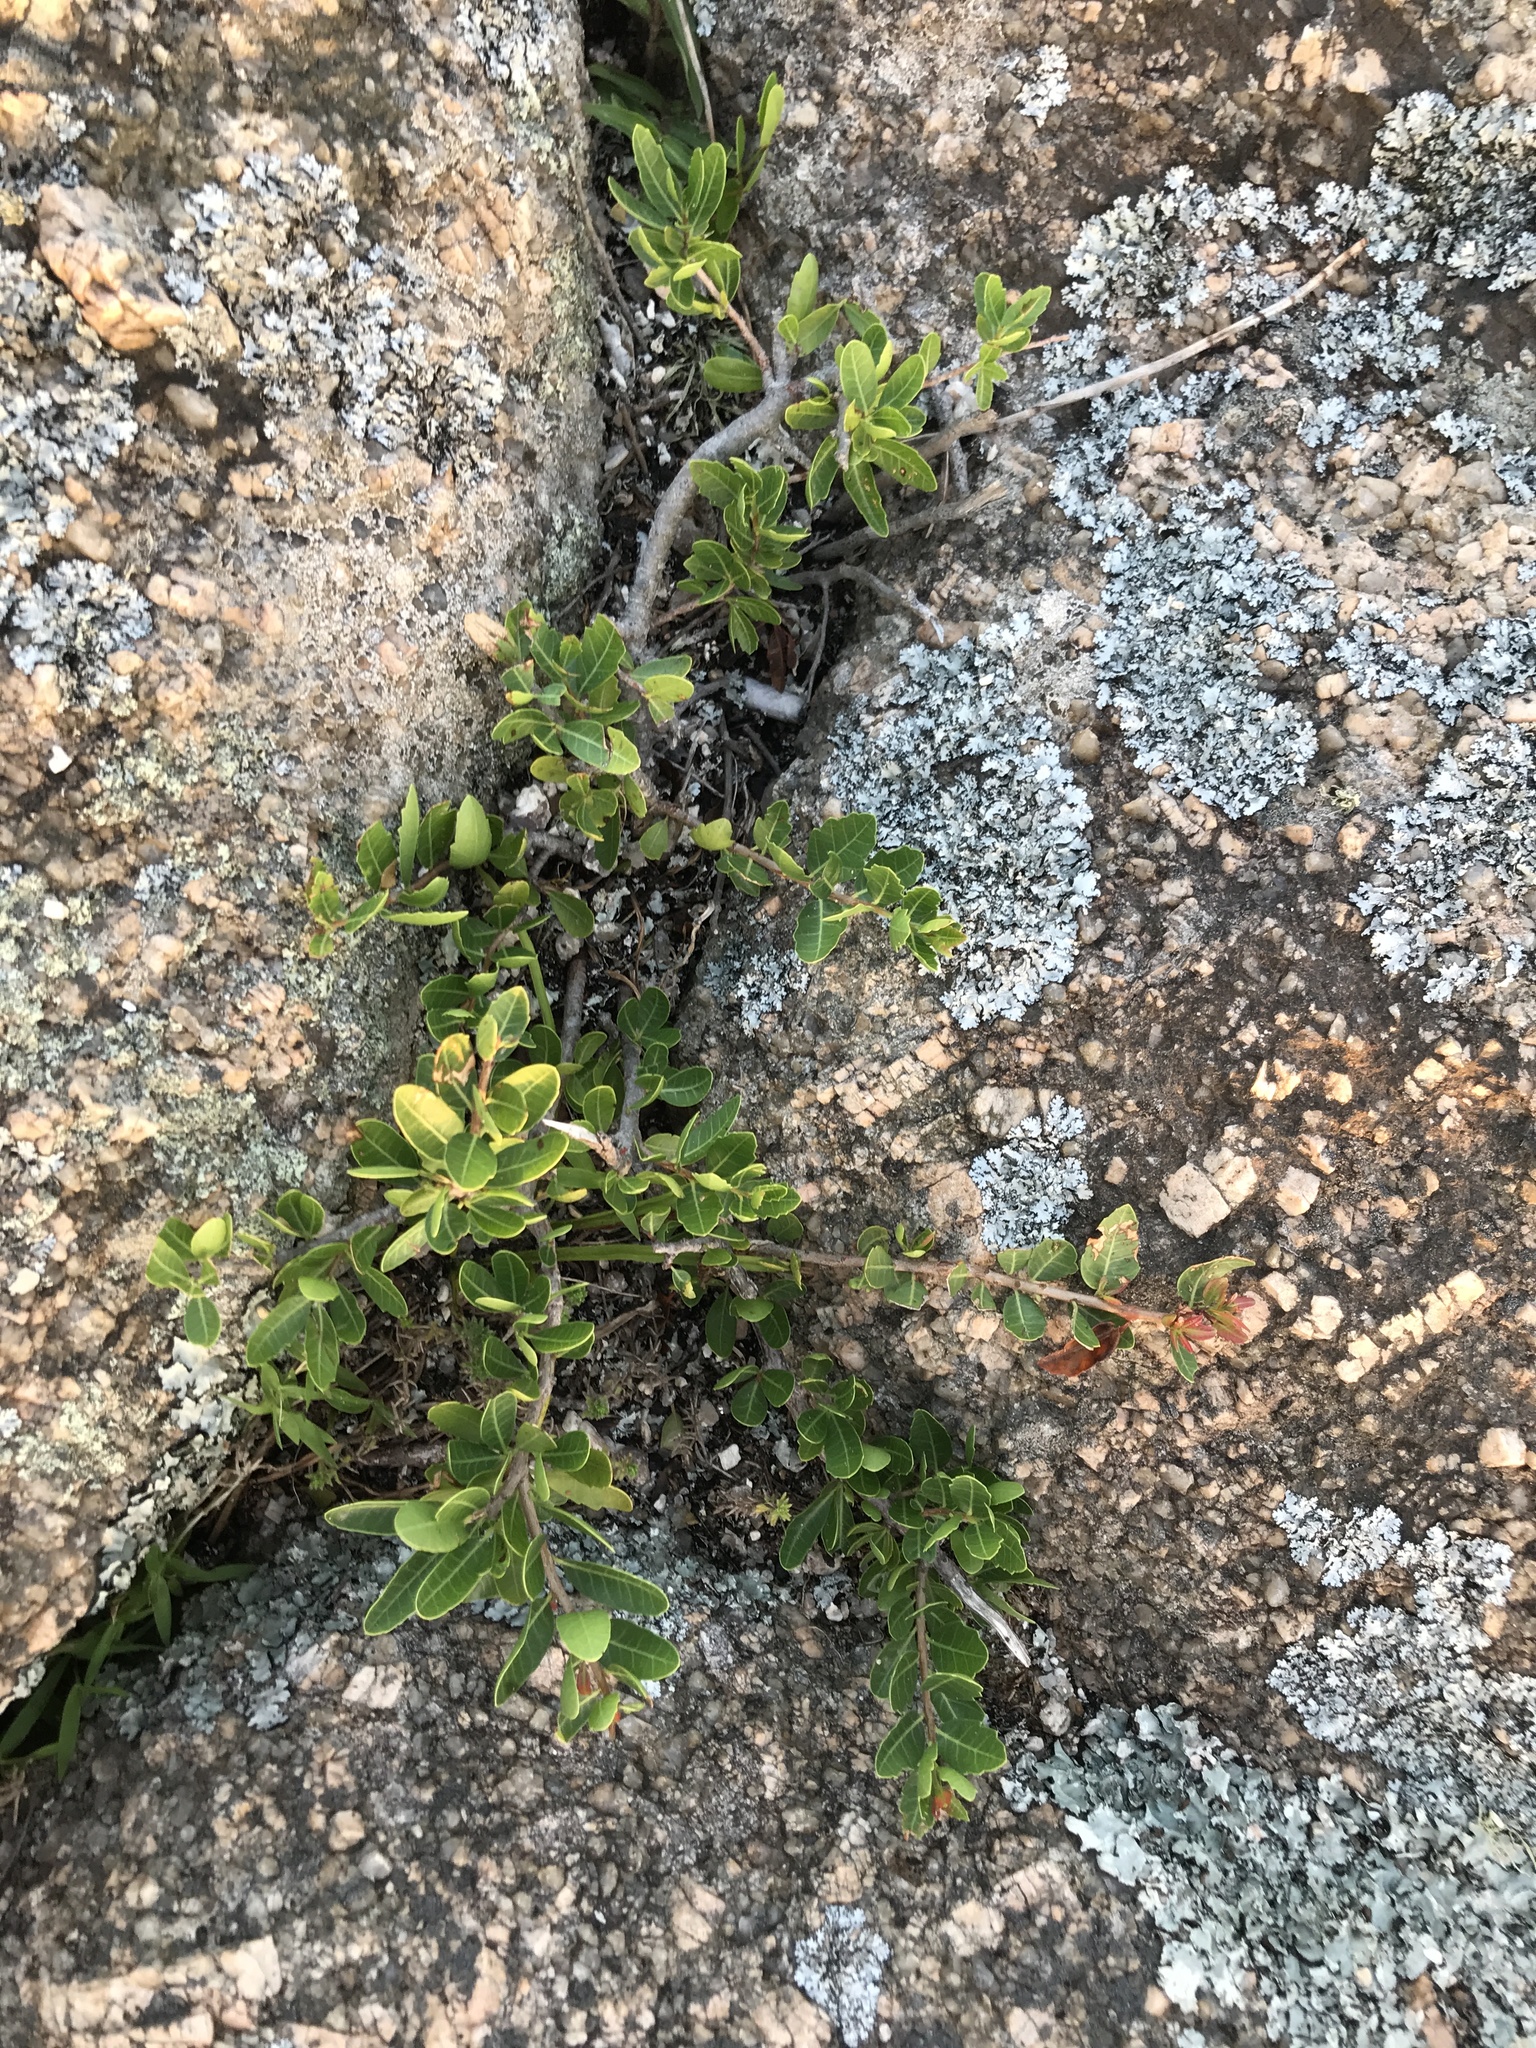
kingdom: Plantae
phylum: Tracheophyta
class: Magnoliopsida
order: Sapindales
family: Anacardiaceae
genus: Schinus
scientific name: Schinus engleri
